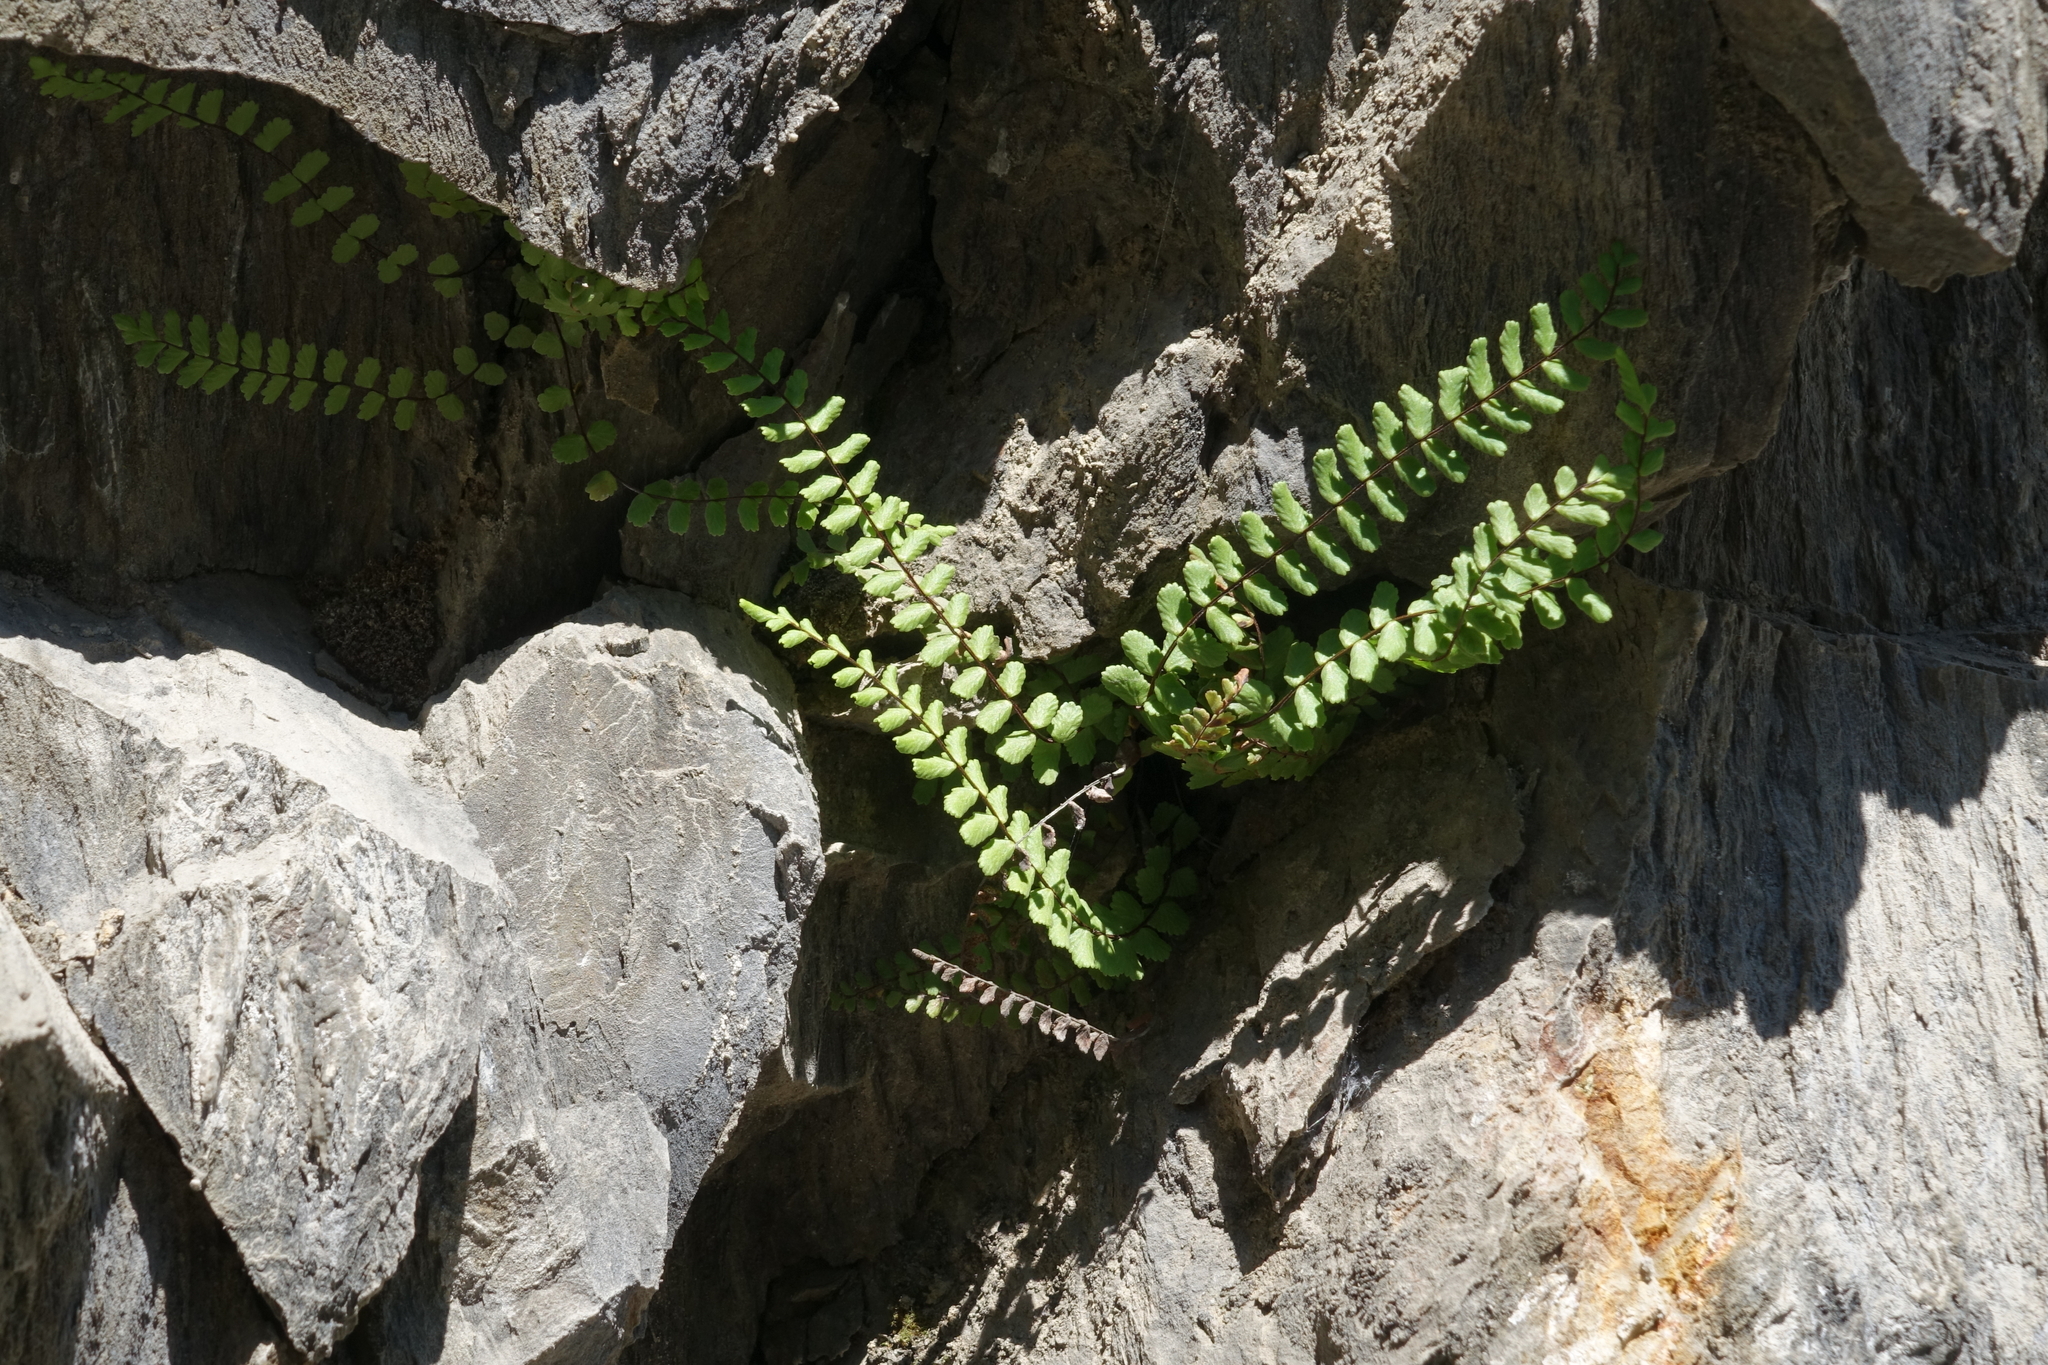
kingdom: Plantae
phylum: Tracheophyta
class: Polypodiopsida
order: Polypodiales
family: Aspleniaceae
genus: Asplenium
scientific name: Asplenium trichomanes
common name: Maidenhair spleenwort
